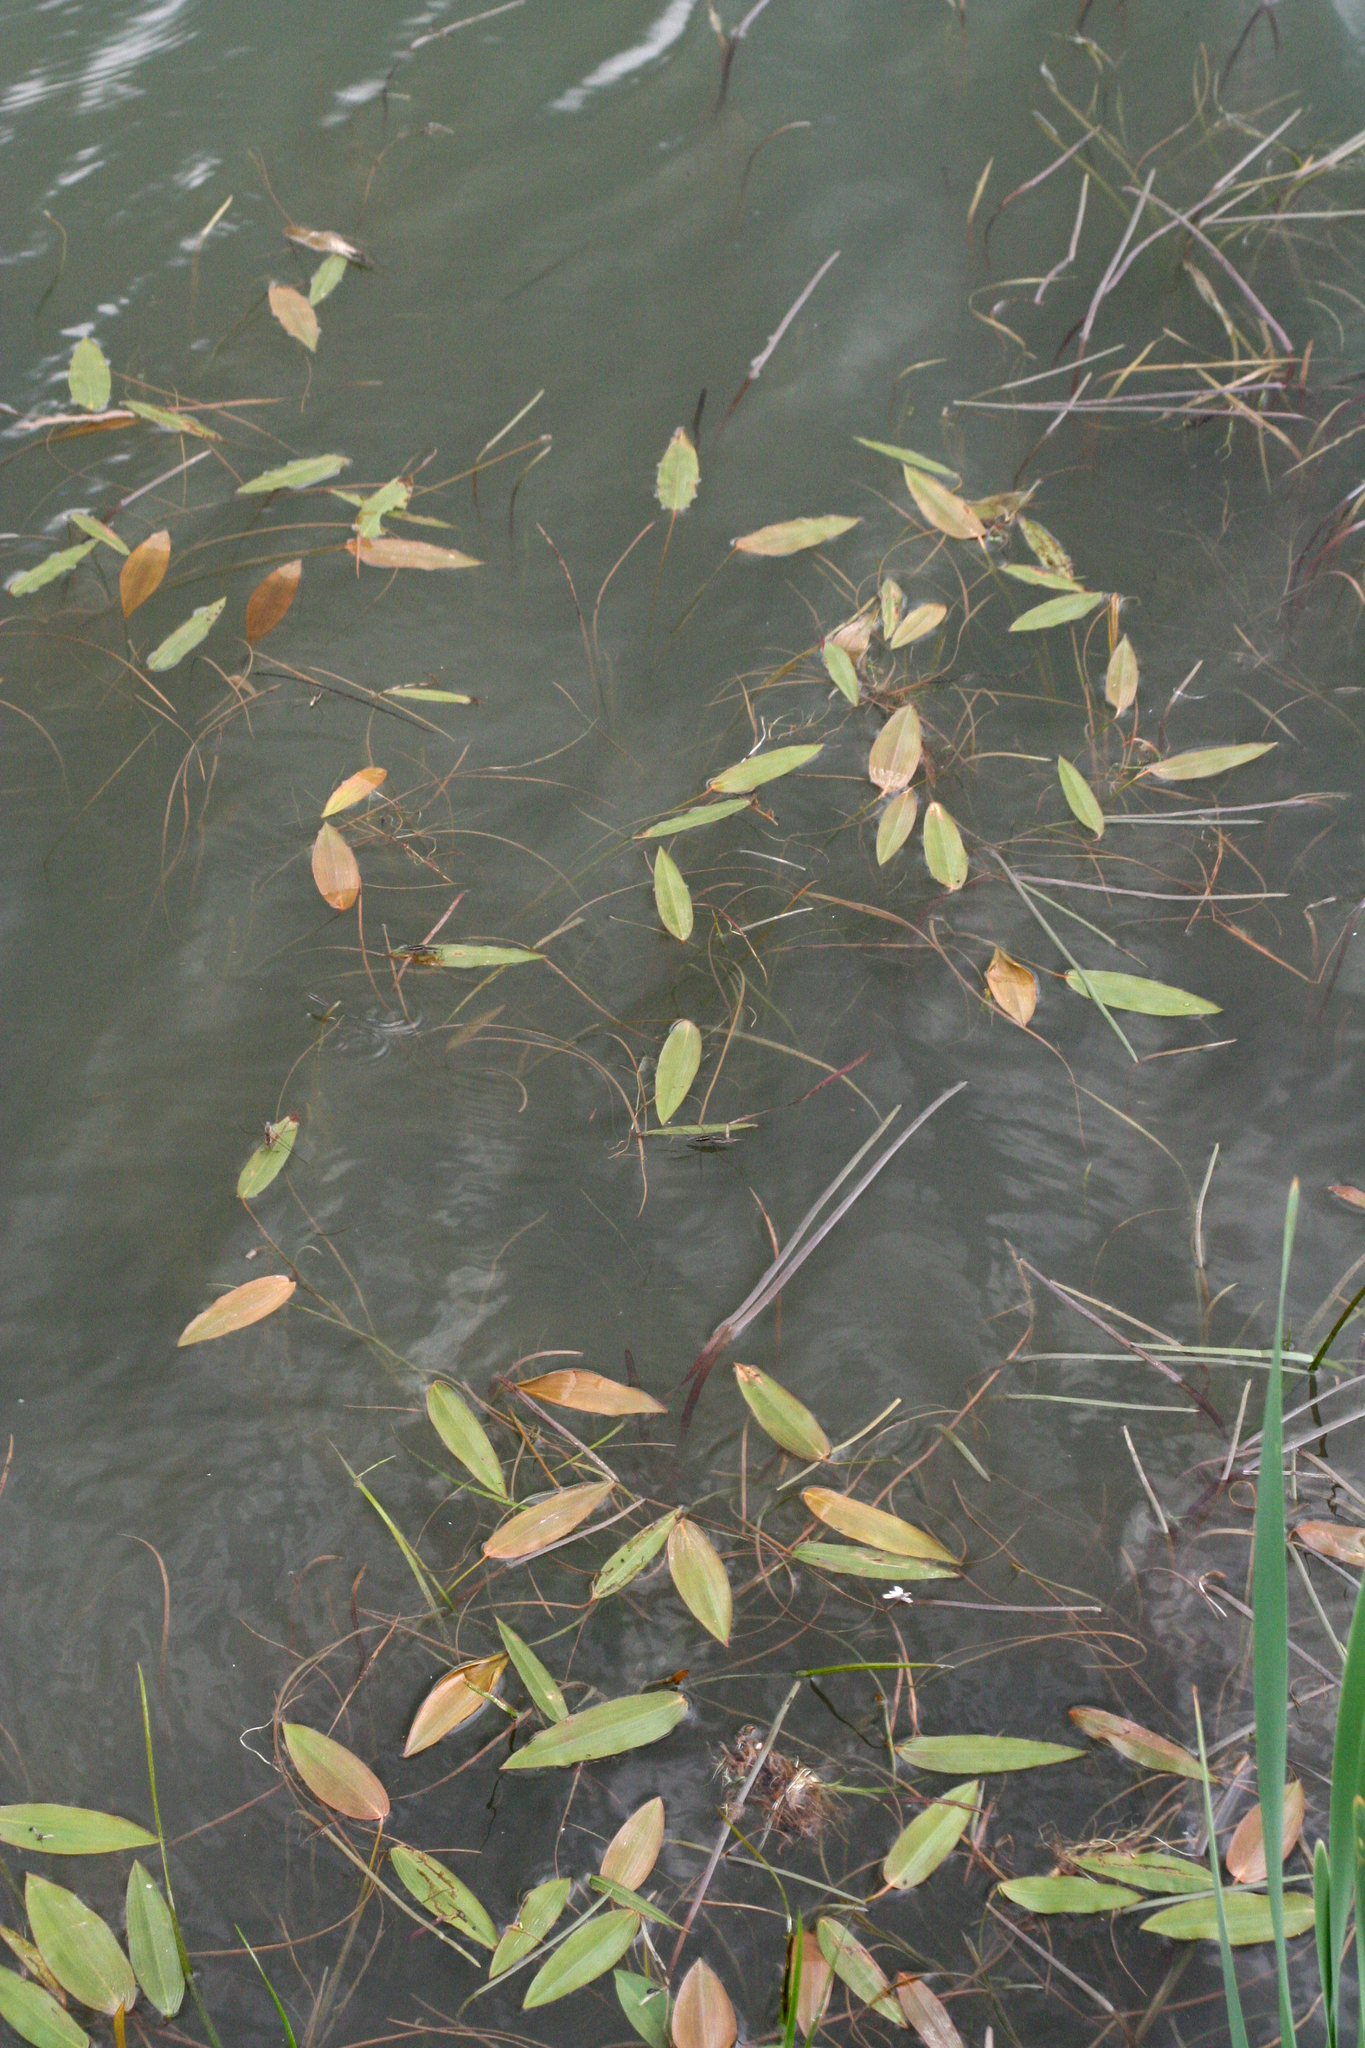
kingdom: Plantae
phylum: Tracheophyta
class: Liliopsida
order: Alismatales
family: Potamogetonaceae
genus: Potamogeton
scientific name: Potamogeton natans
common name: Broad-leaved pondweed
